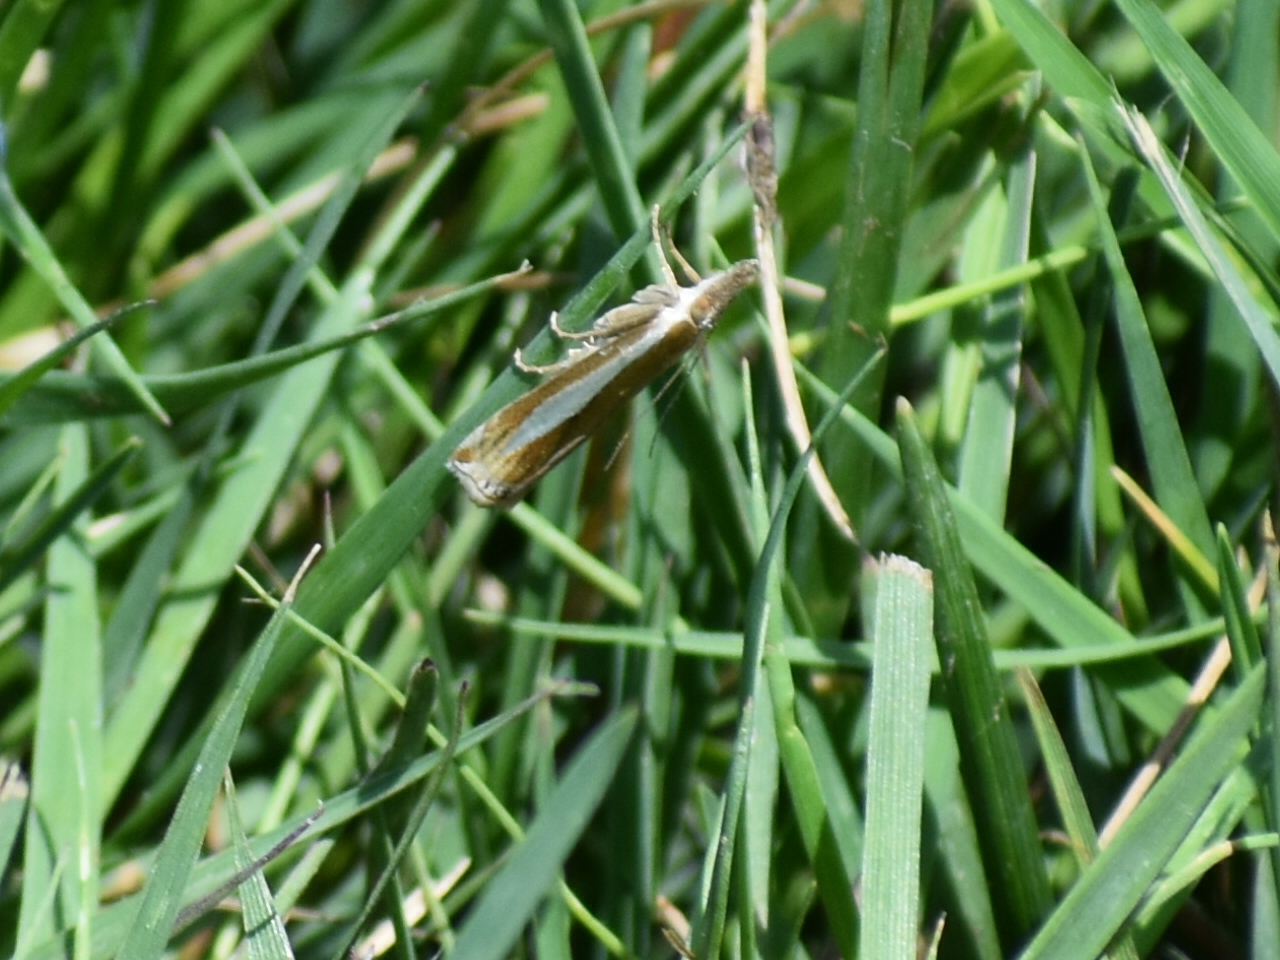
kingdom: Animalia
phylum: Arthropoda
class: Insecta
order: Lepidoptera
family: Crambidae
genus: Crambus
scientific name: Crambus praefectellus
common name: Common grass-veneer
